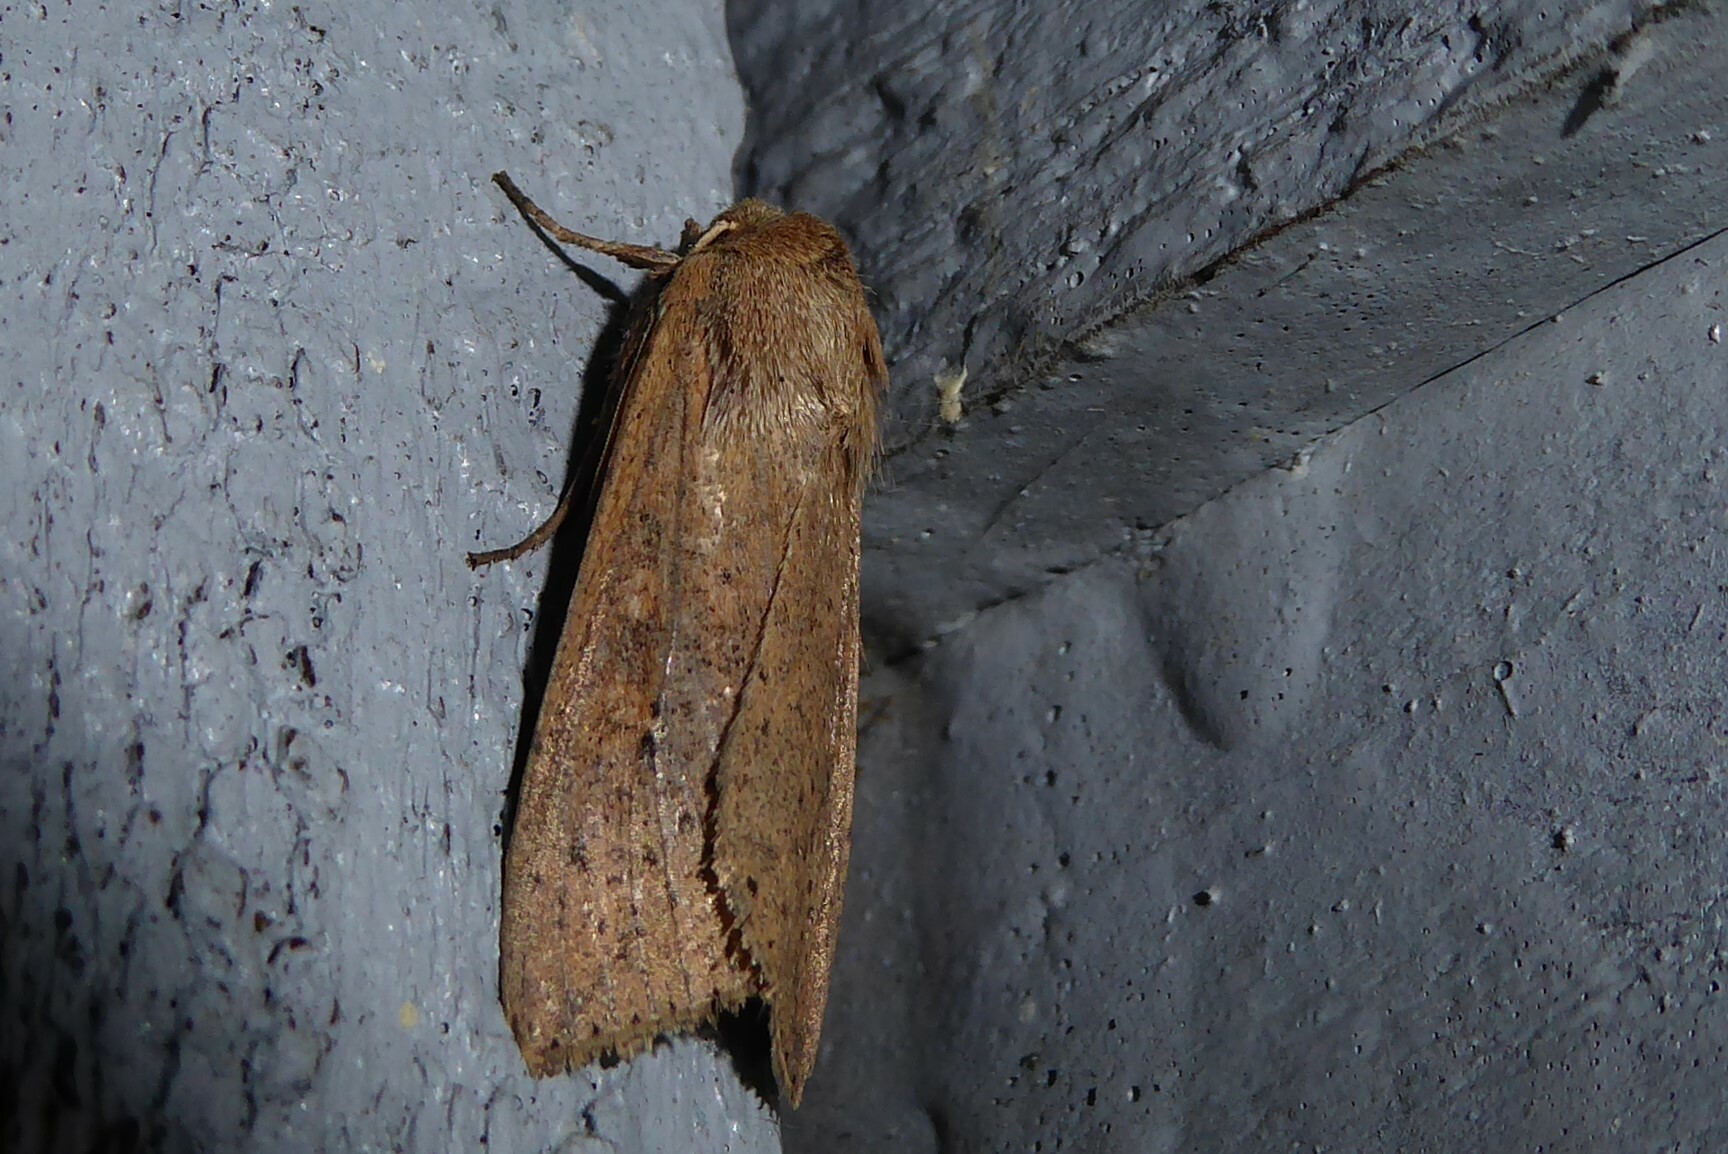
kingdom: Animalia
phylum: Arthropoda
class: Insecta
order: Lepidoptera
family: Noctuidae
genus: Mythimna
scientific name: Mythimna separata
